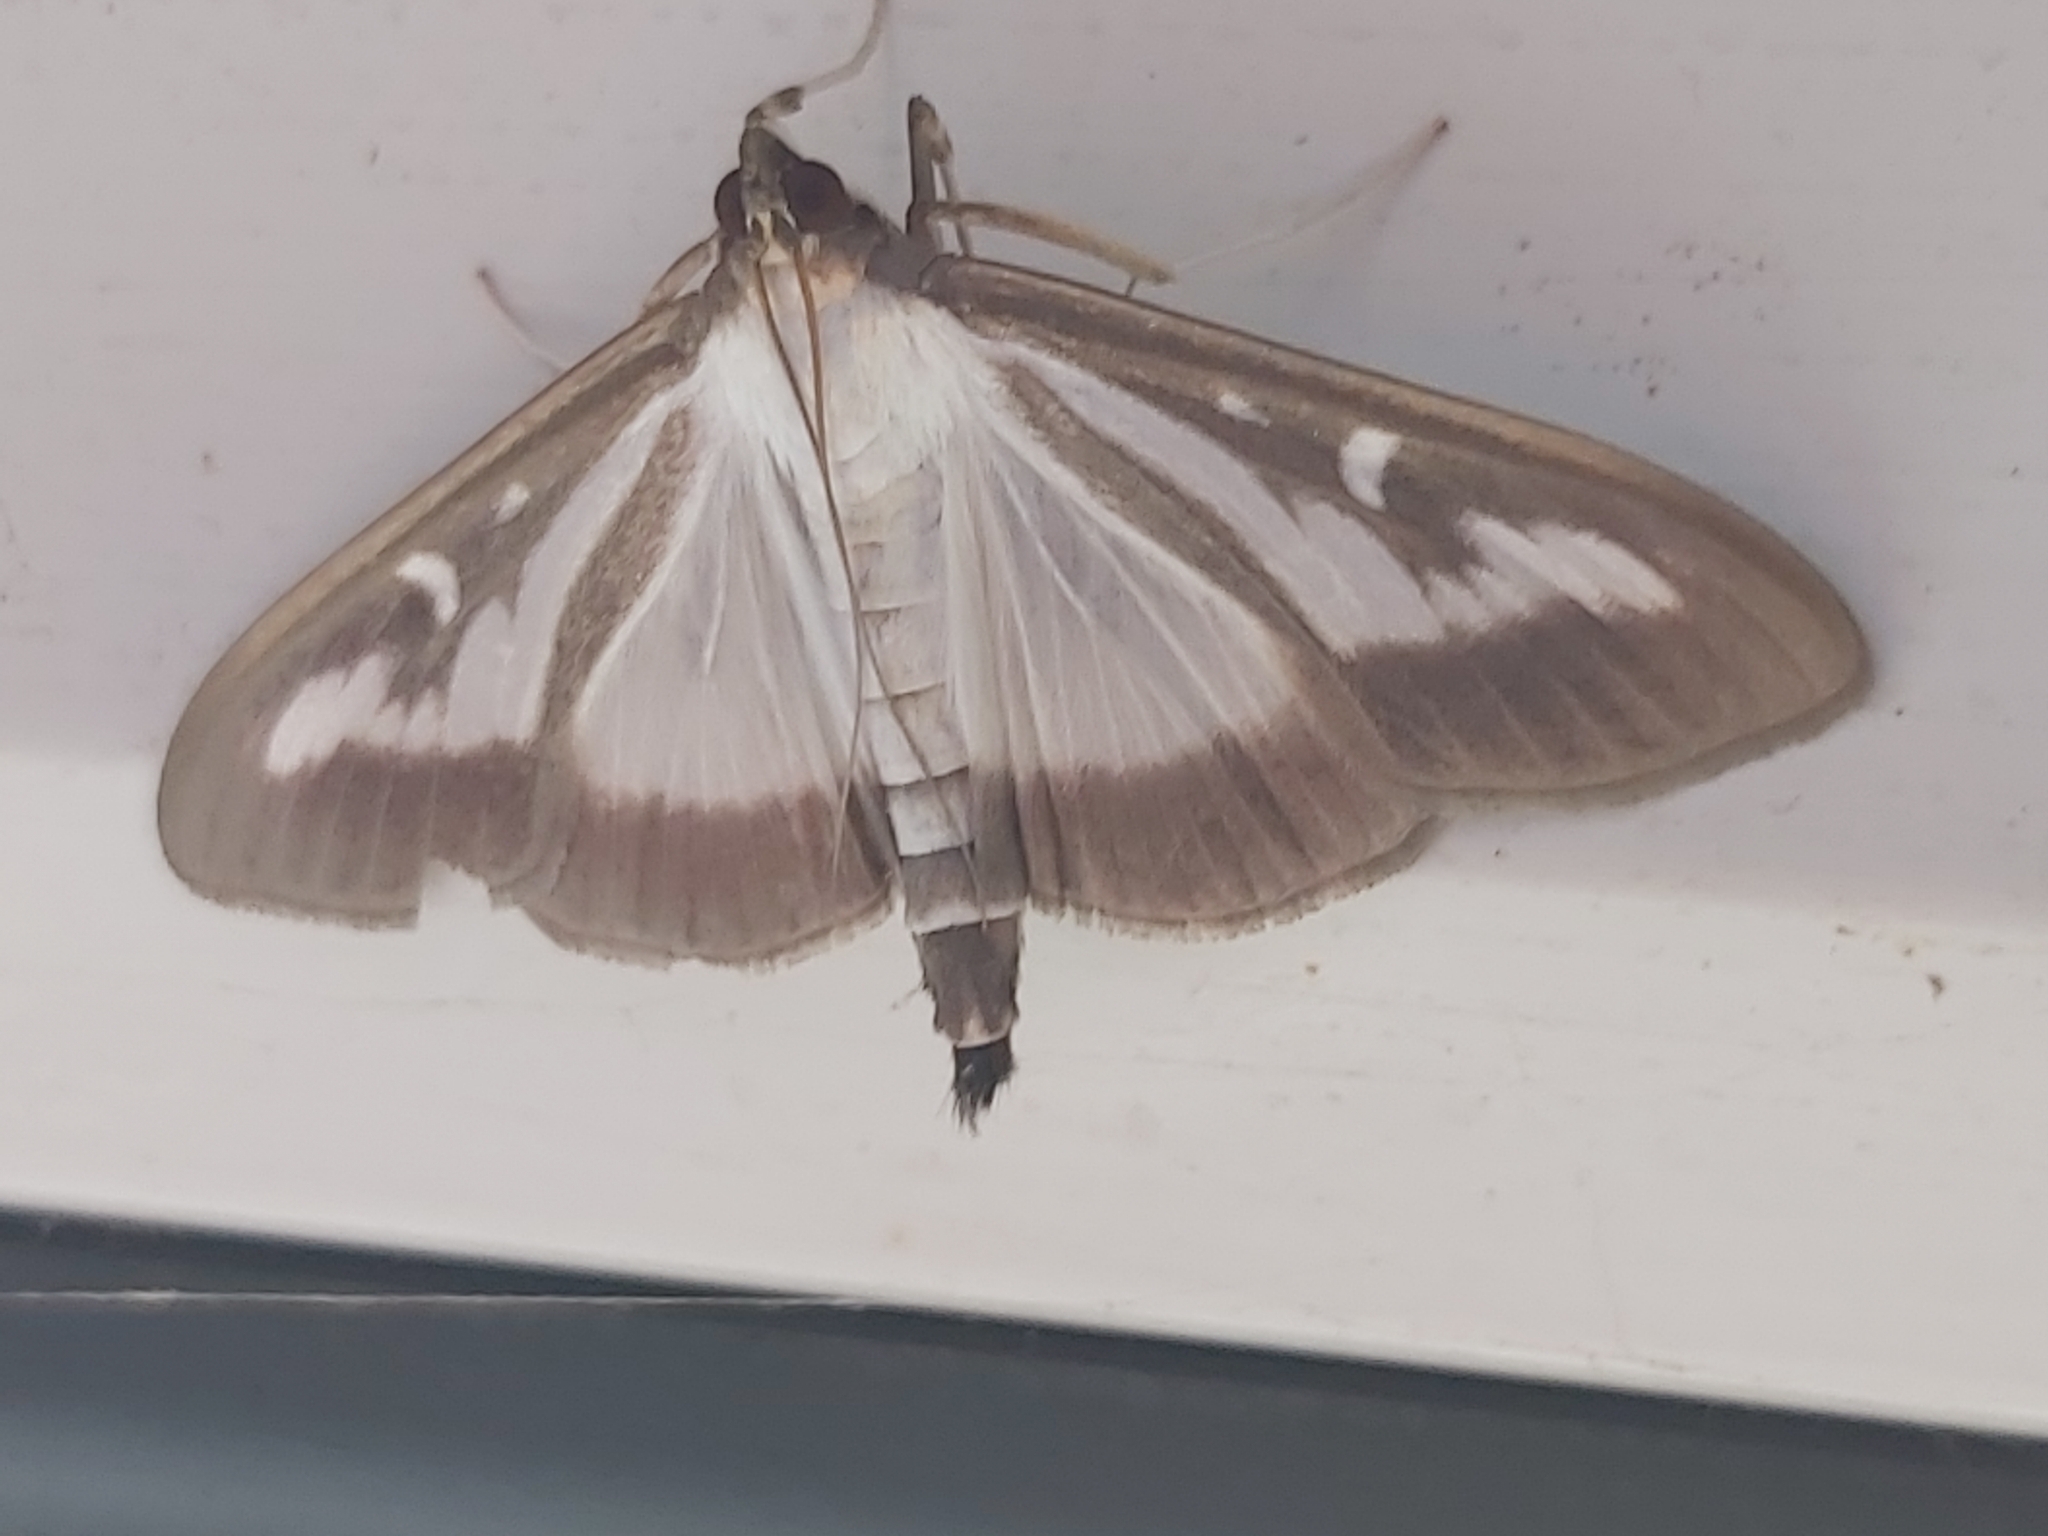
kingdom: Animalia
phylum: Arthropoda
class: Insecta
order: Lepidoptera
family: Crambidae
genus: Cydalima
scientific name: Cydalima perspectalis
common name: Box tree moth
